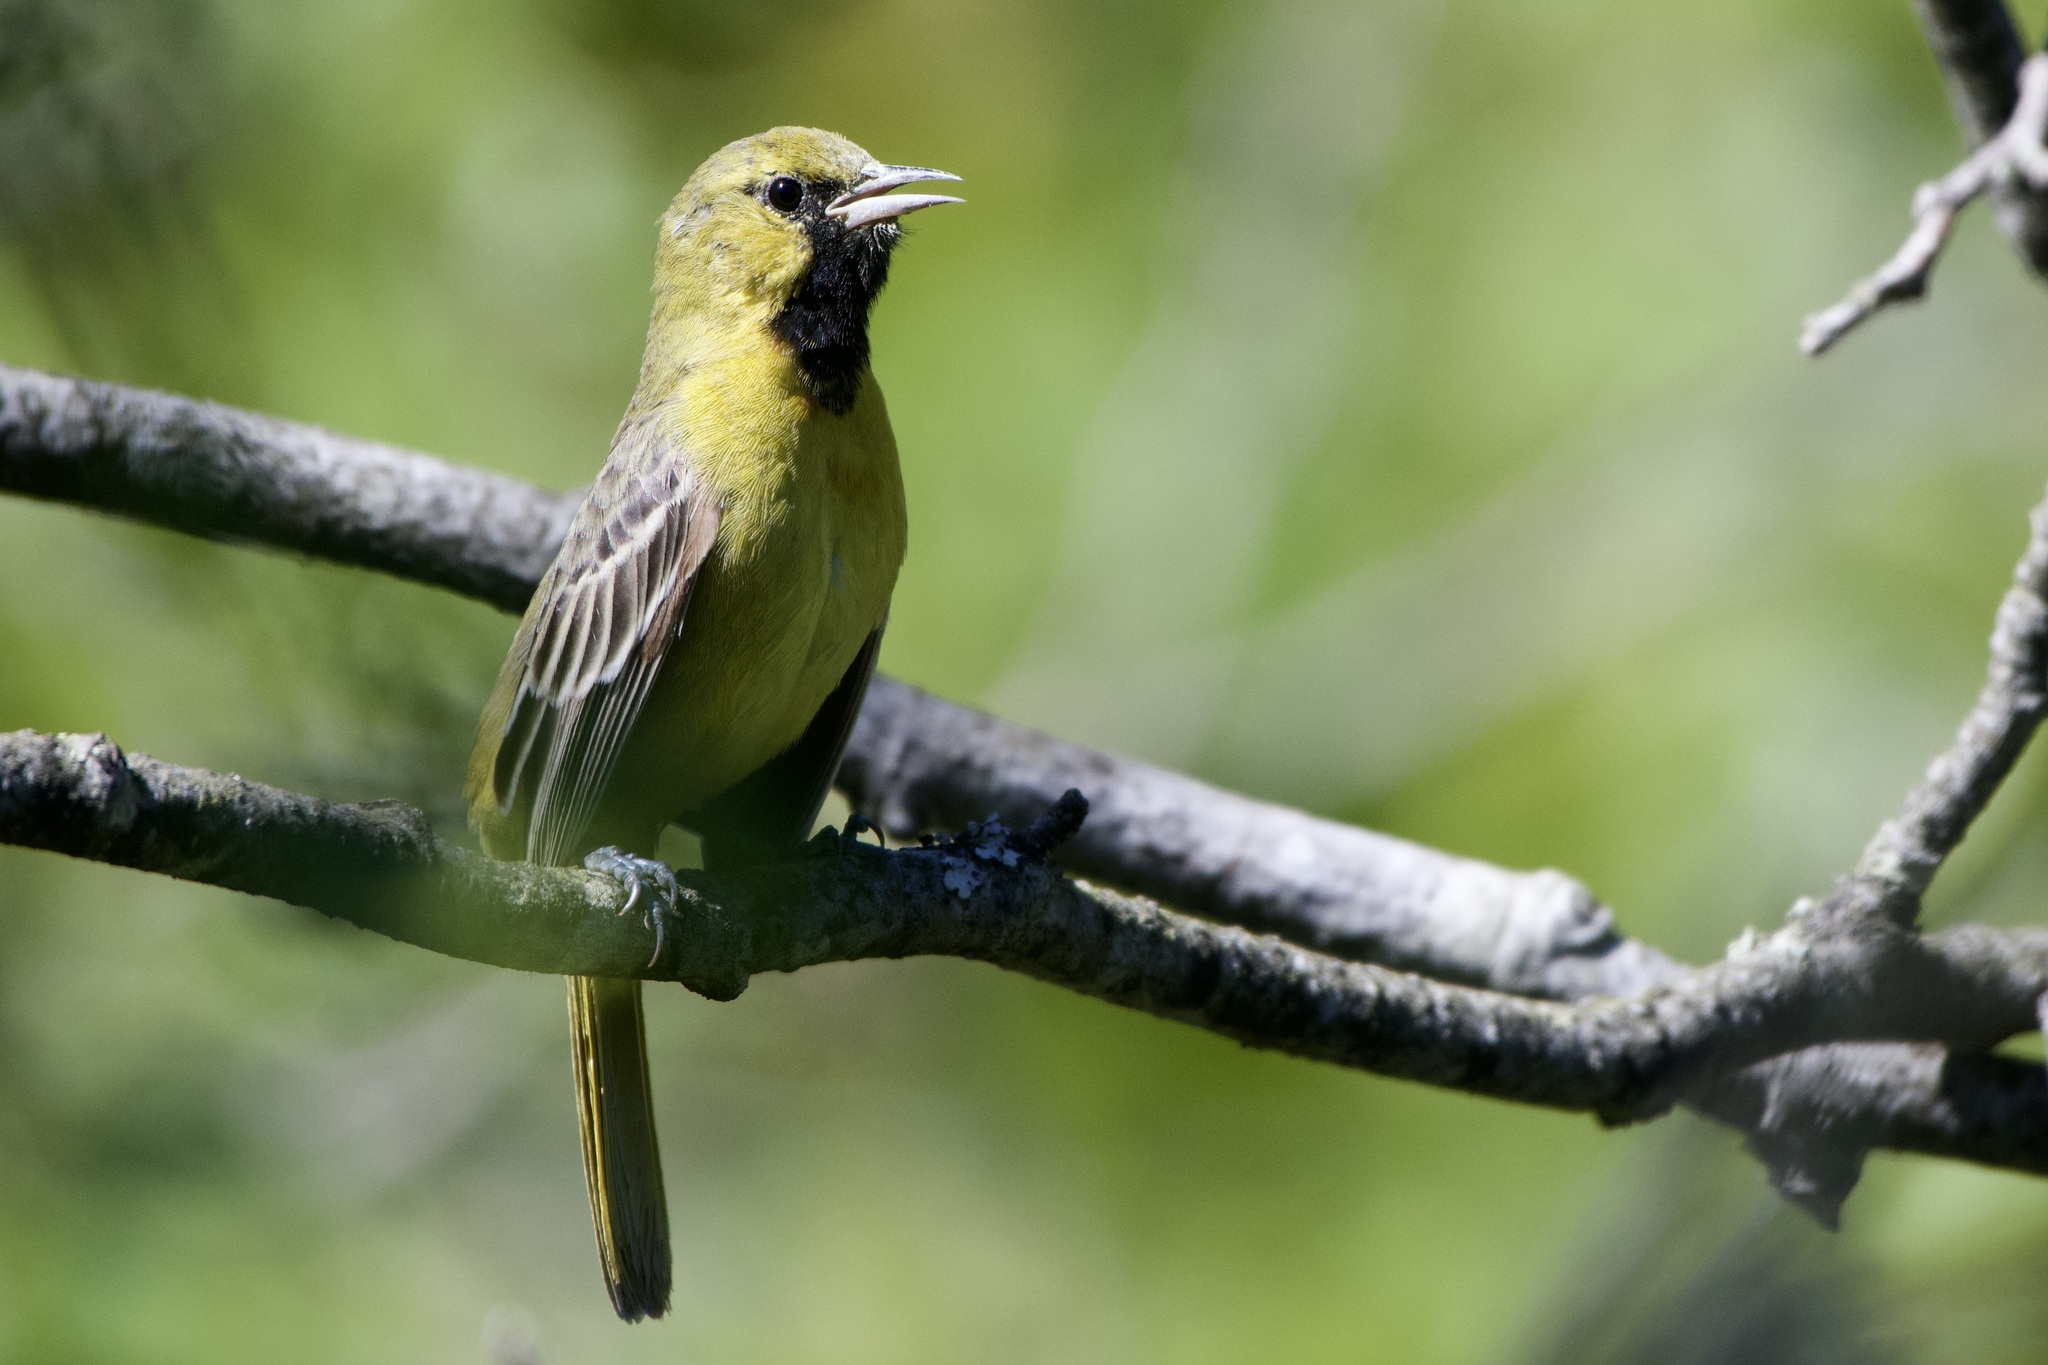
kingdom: Animalia
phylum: Chordata
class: Aves
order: Passeriformes
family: Icteridae
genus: Icterus
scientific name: Icterus spurius
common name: Orchard oriole
